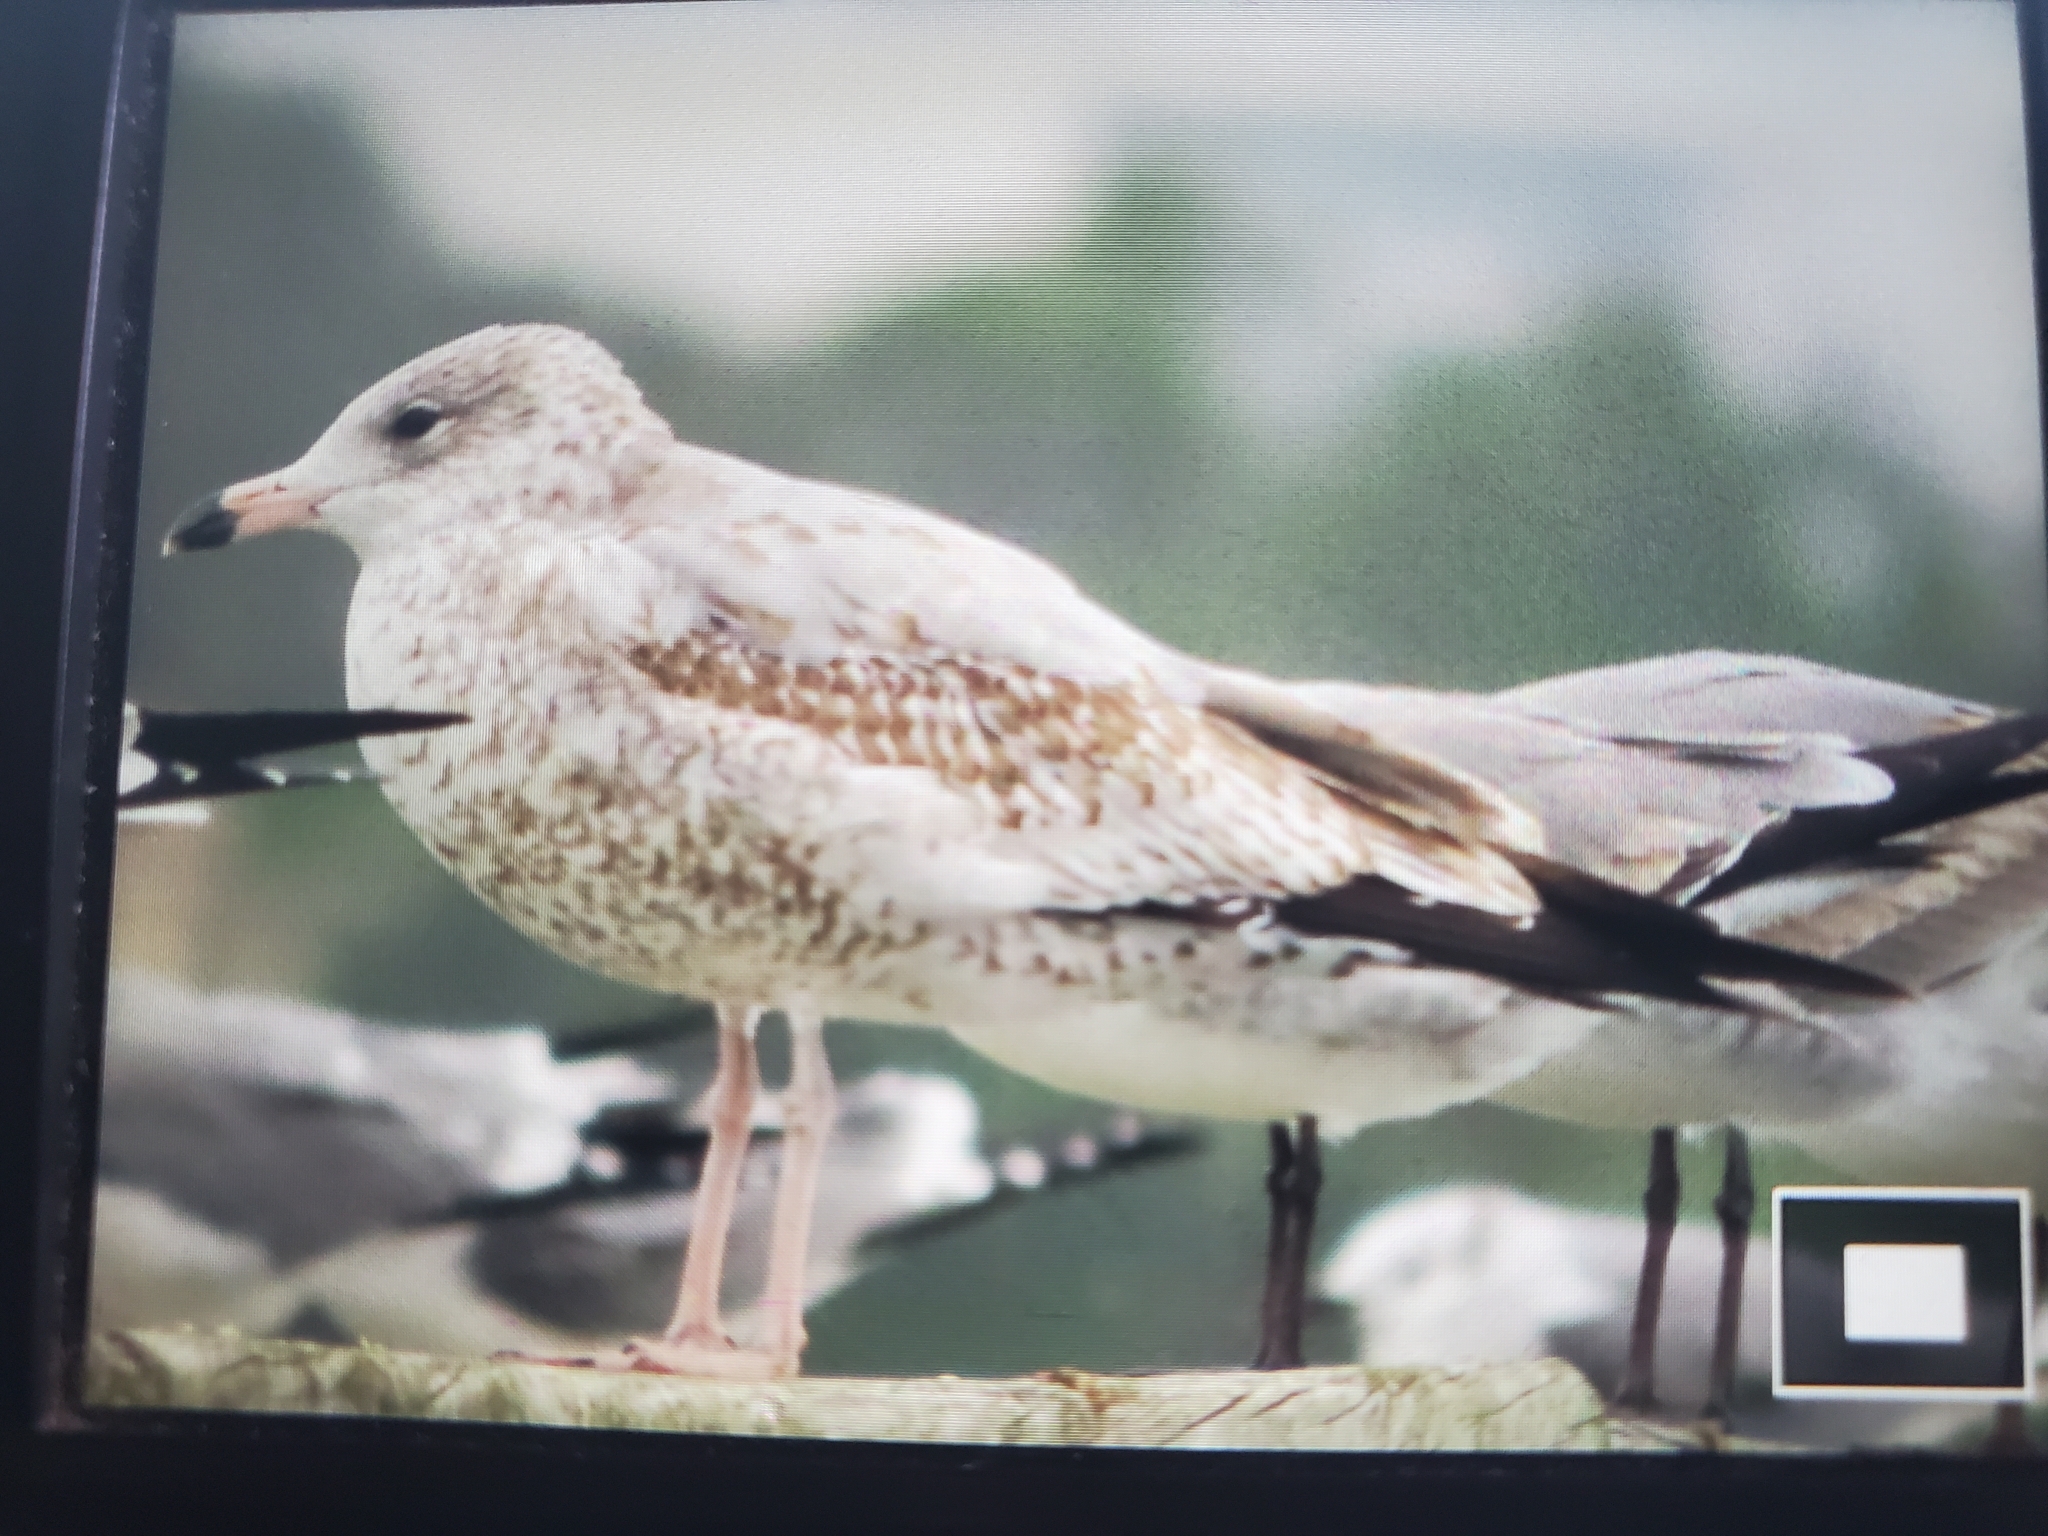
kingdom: Animalia
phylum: Chordata
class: Aves
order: Charadriiformes
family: Laridae
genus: Larus
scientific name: Larus delawarensis
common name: Ring-billed gull
